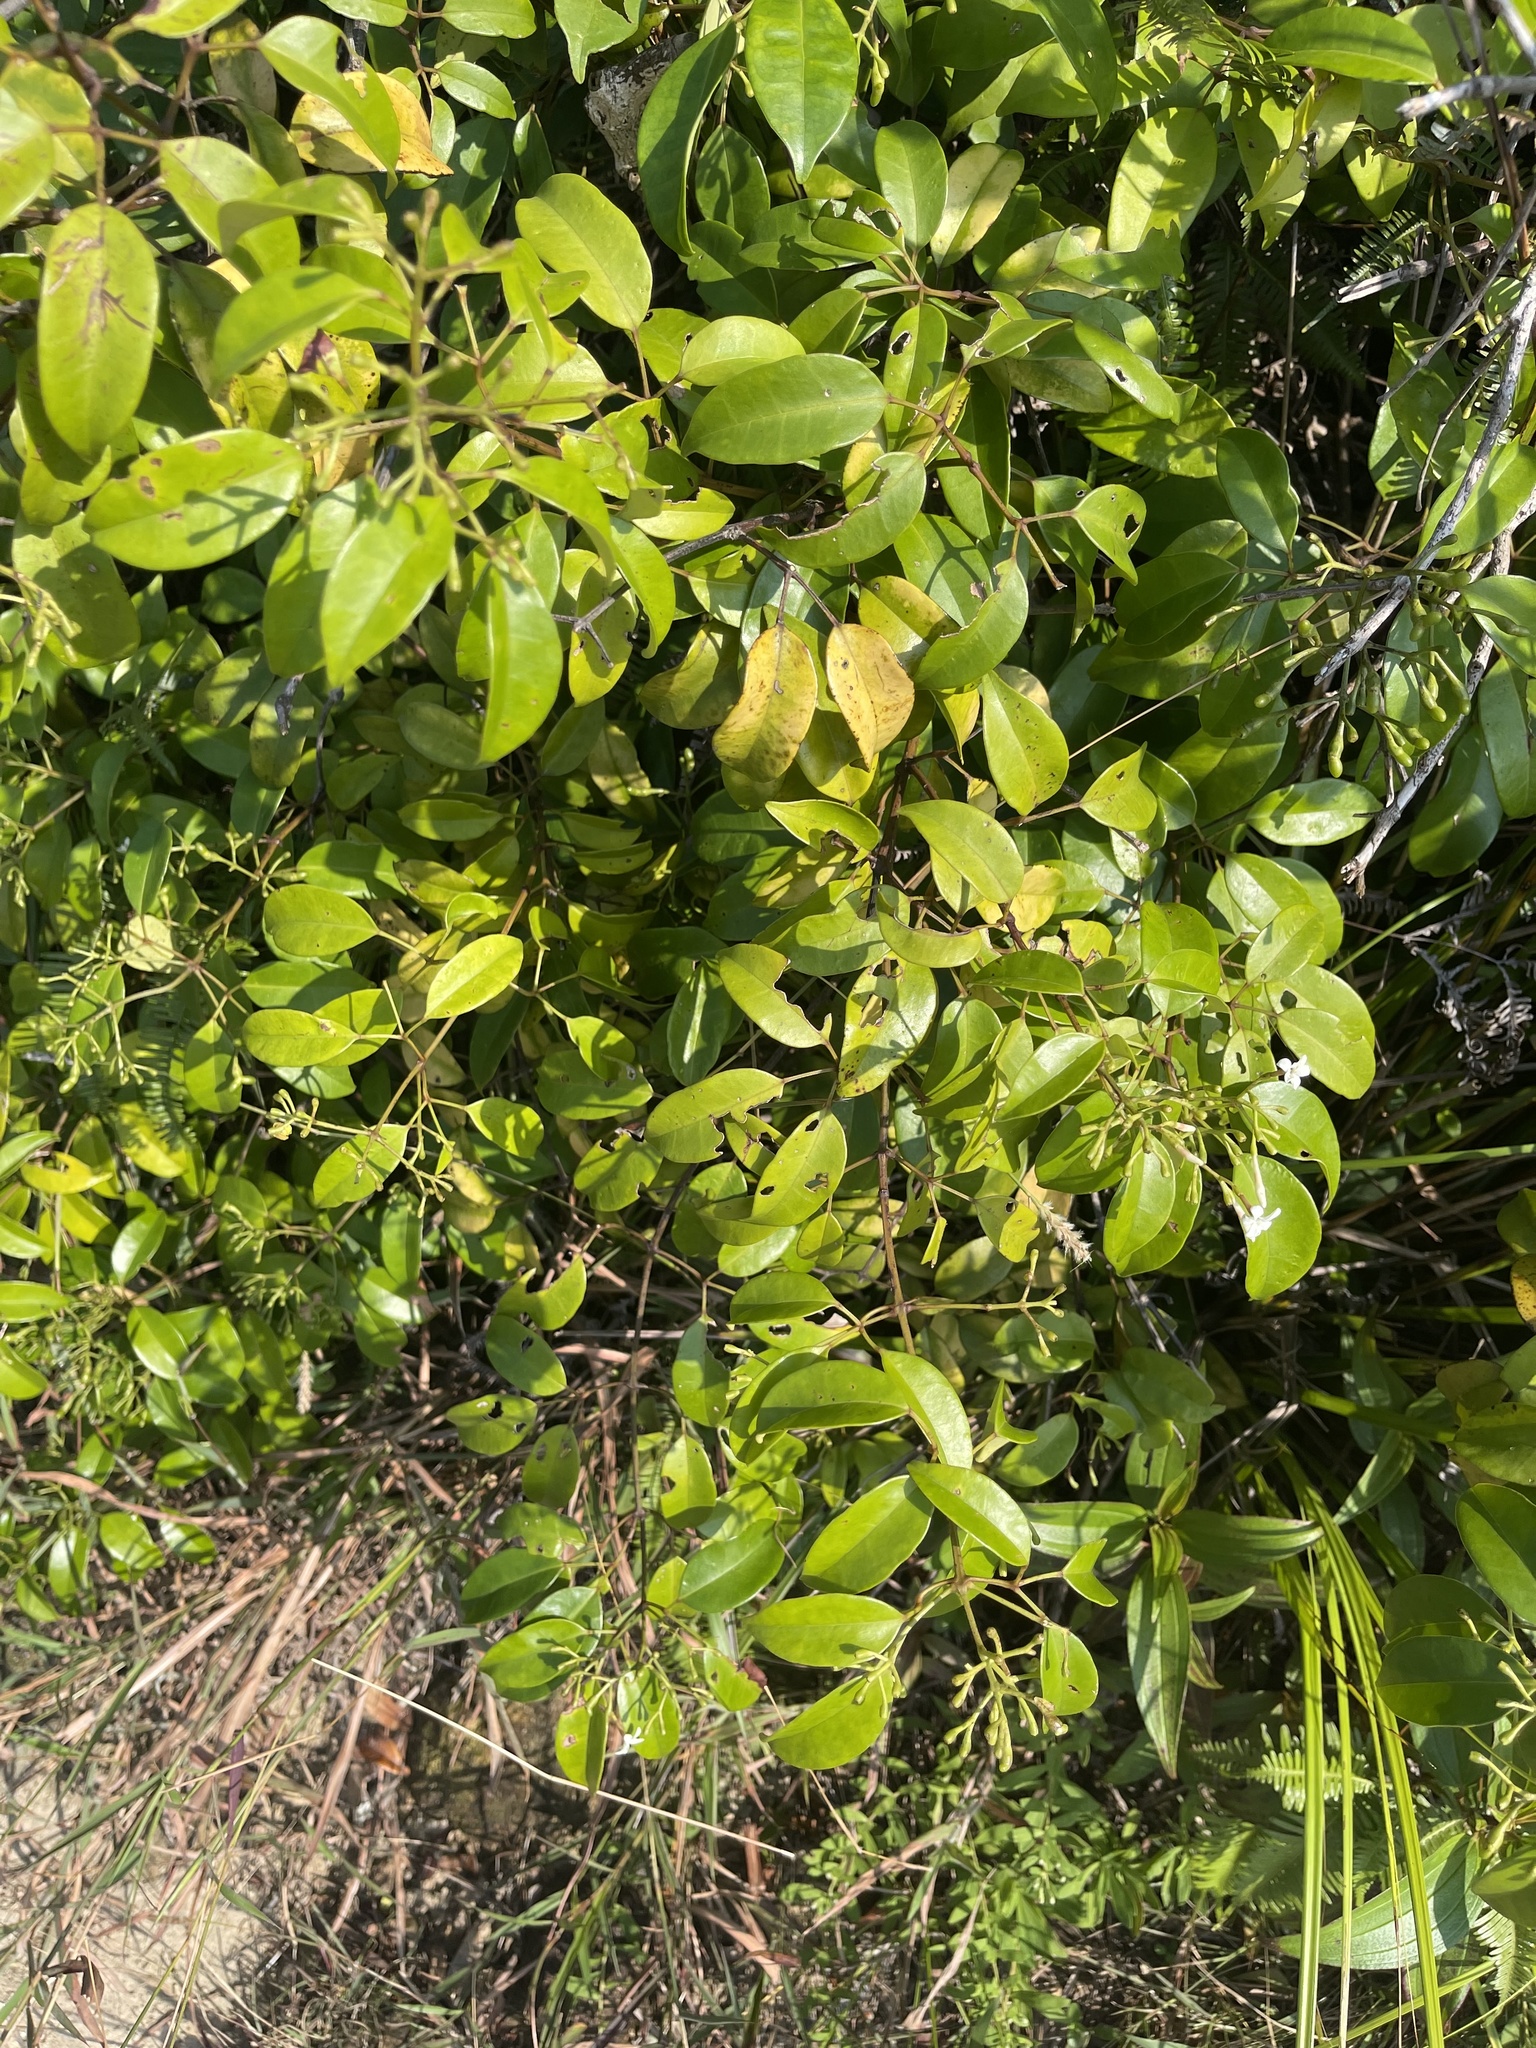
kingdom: Plantae
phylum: Tracheophyta
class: Magnoliopsida
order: Lamiales
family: Oleaceae
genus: Jasminum
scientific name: Jasminum lanceolaria
